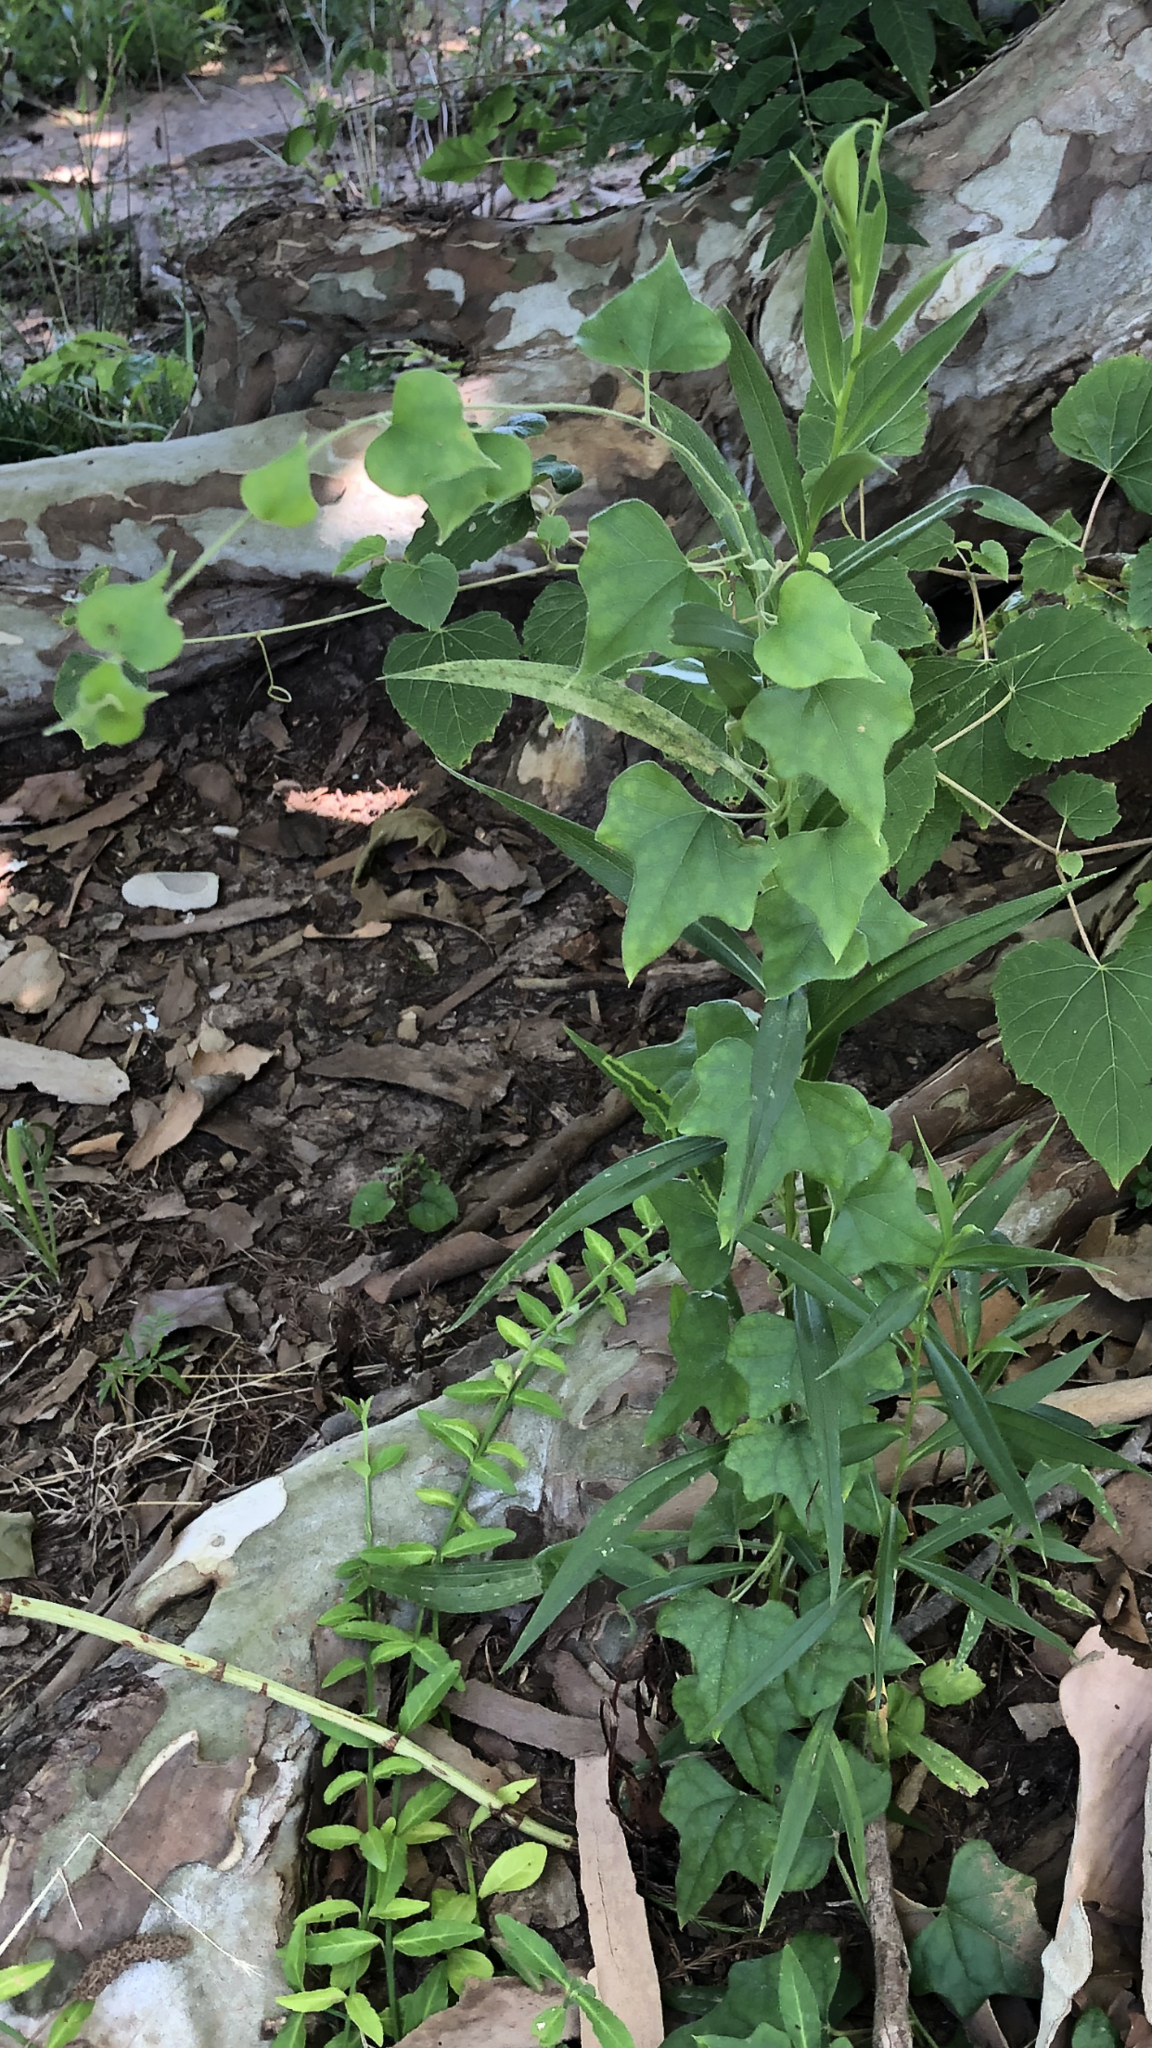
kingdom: Plantae
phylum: Tracheophyta
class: Magnoliopsida
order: Ranunculales
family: Menispermaceae
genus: Cocculus
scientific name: Cocculus carolinus
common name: Carolina moonseed
